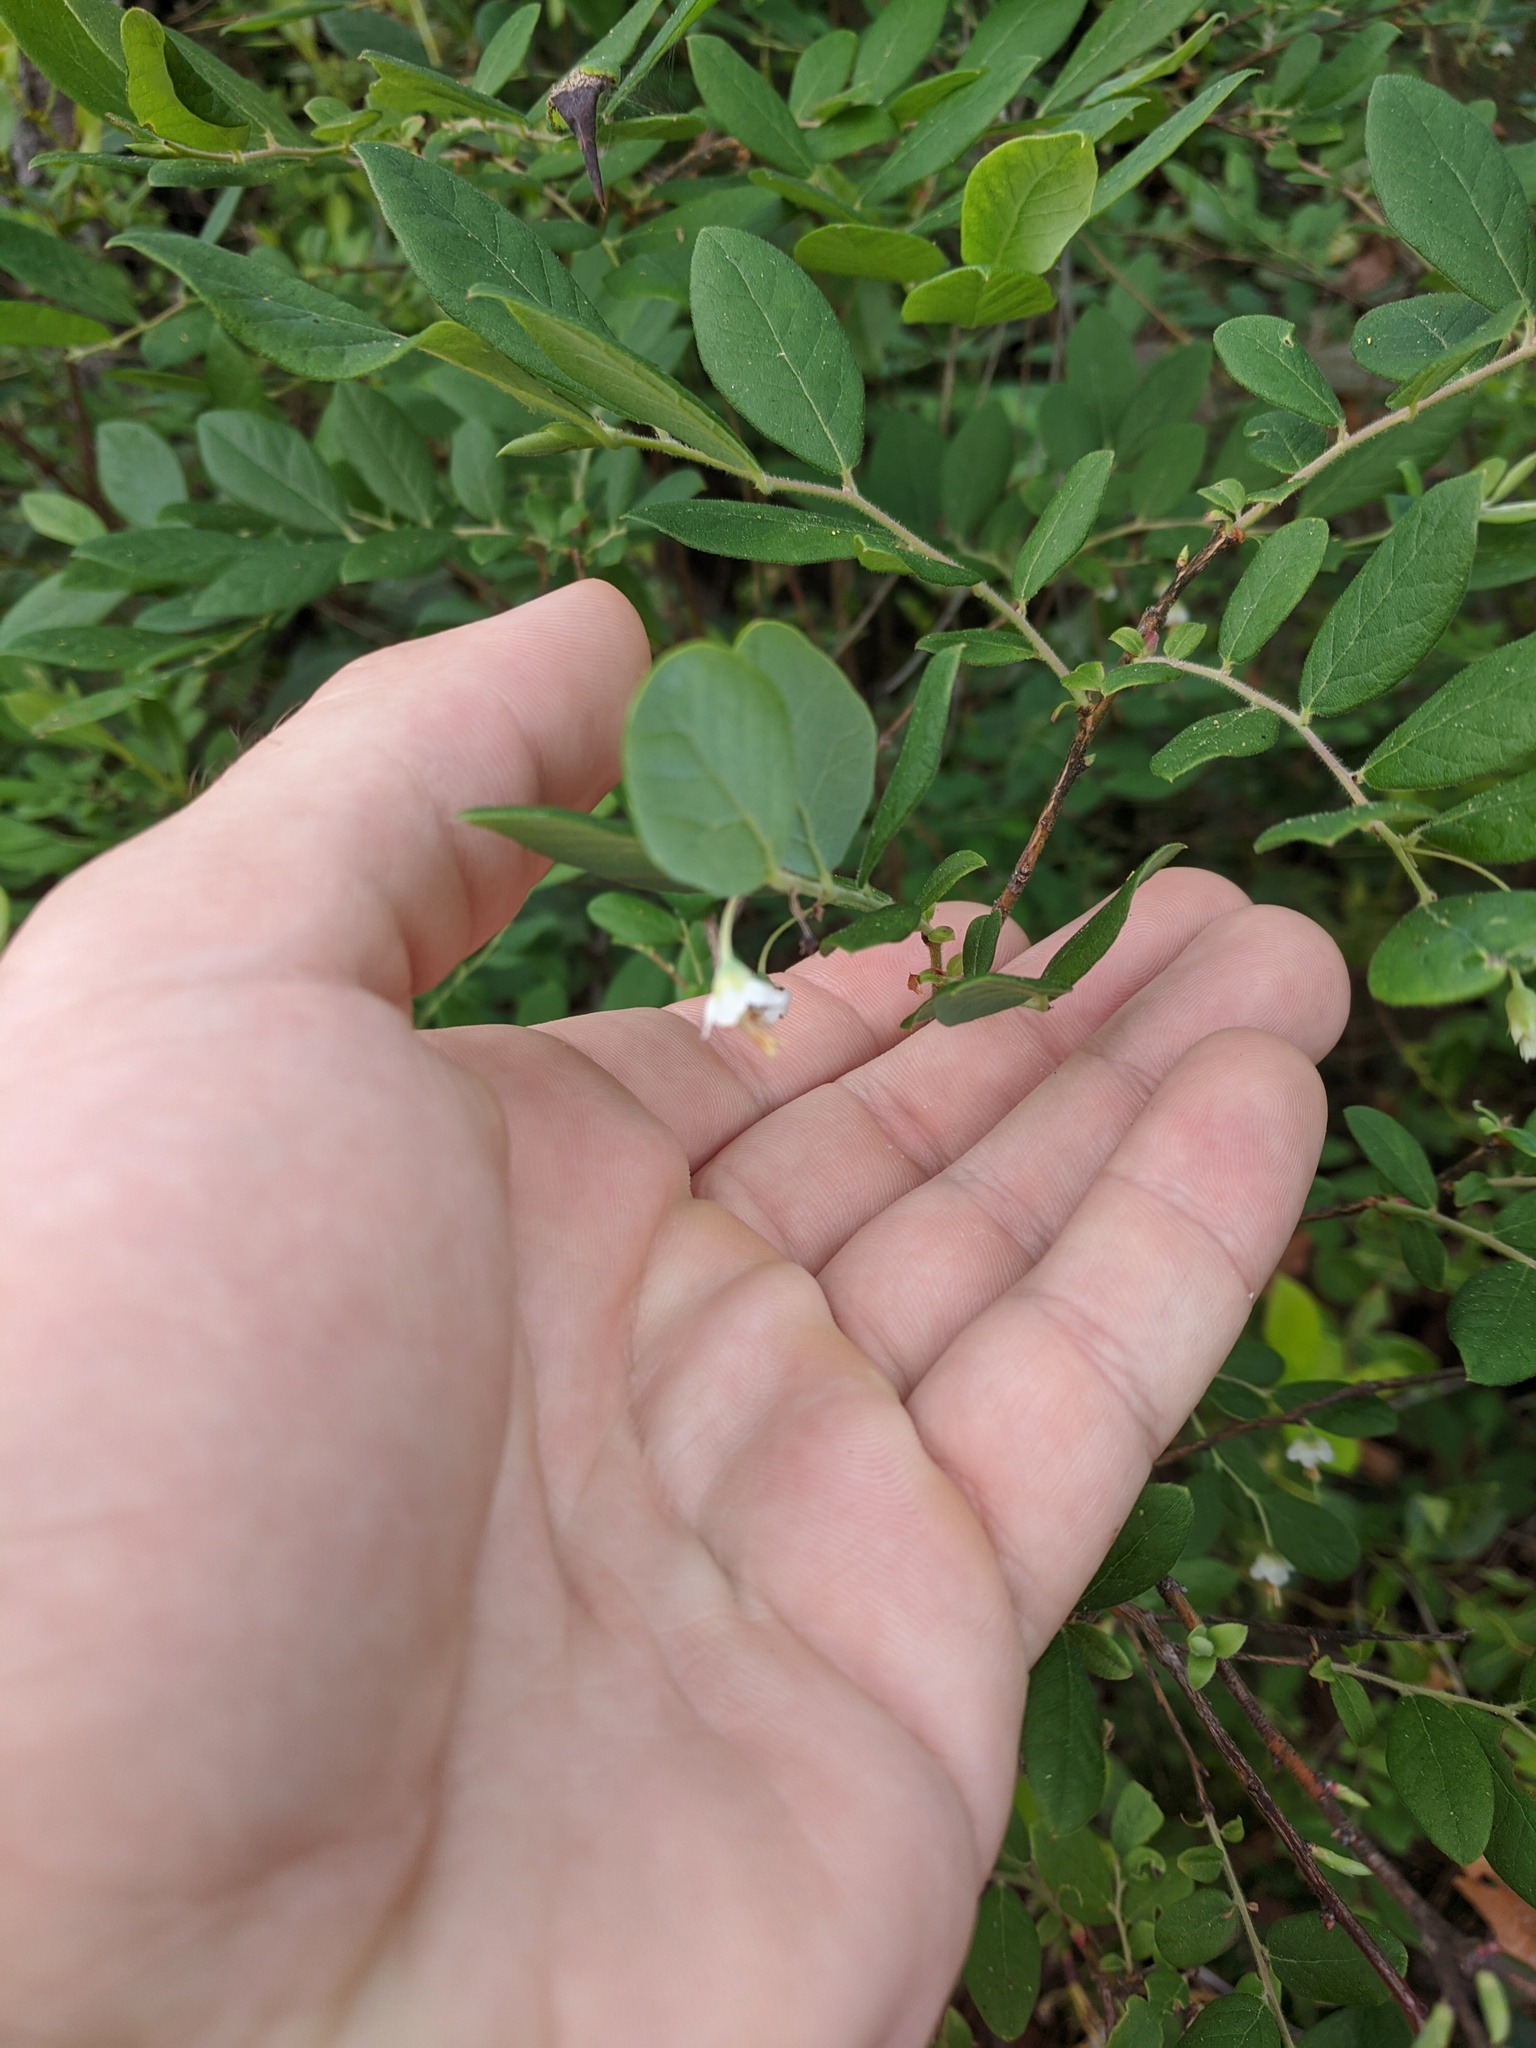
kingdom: Plantae
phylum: Tracheophyta
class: Magnoliopsida
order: Ericales
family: Ericaceae
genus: Vaccinium
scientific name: Vaccinium stamineum
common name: Deerberry
